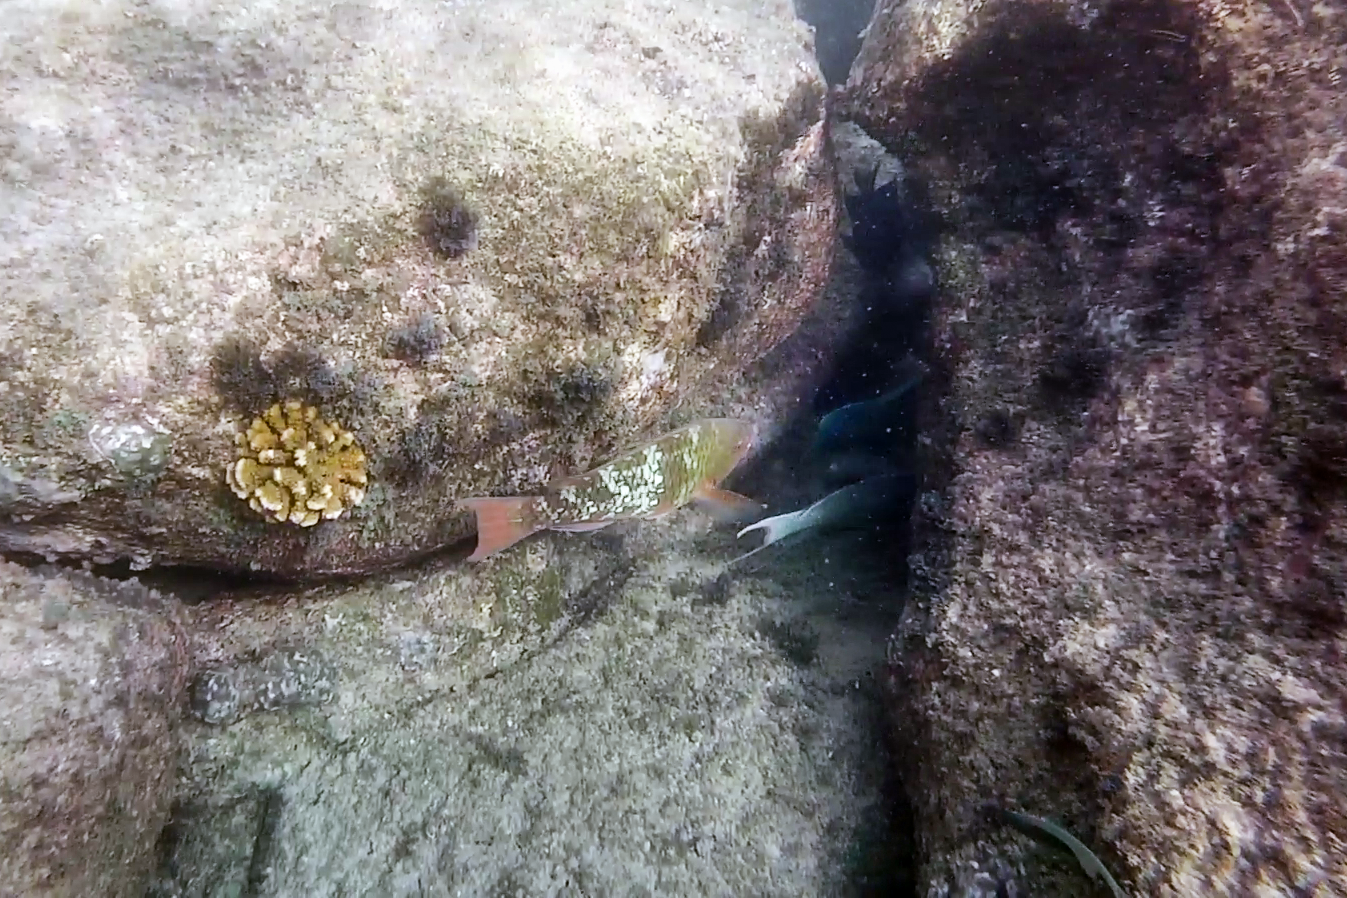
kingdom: Animalia
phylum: Chordata
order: Perciformes
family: Scaridae
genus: Scarus
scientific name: Scarus compressus
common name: Azure parrotfish
